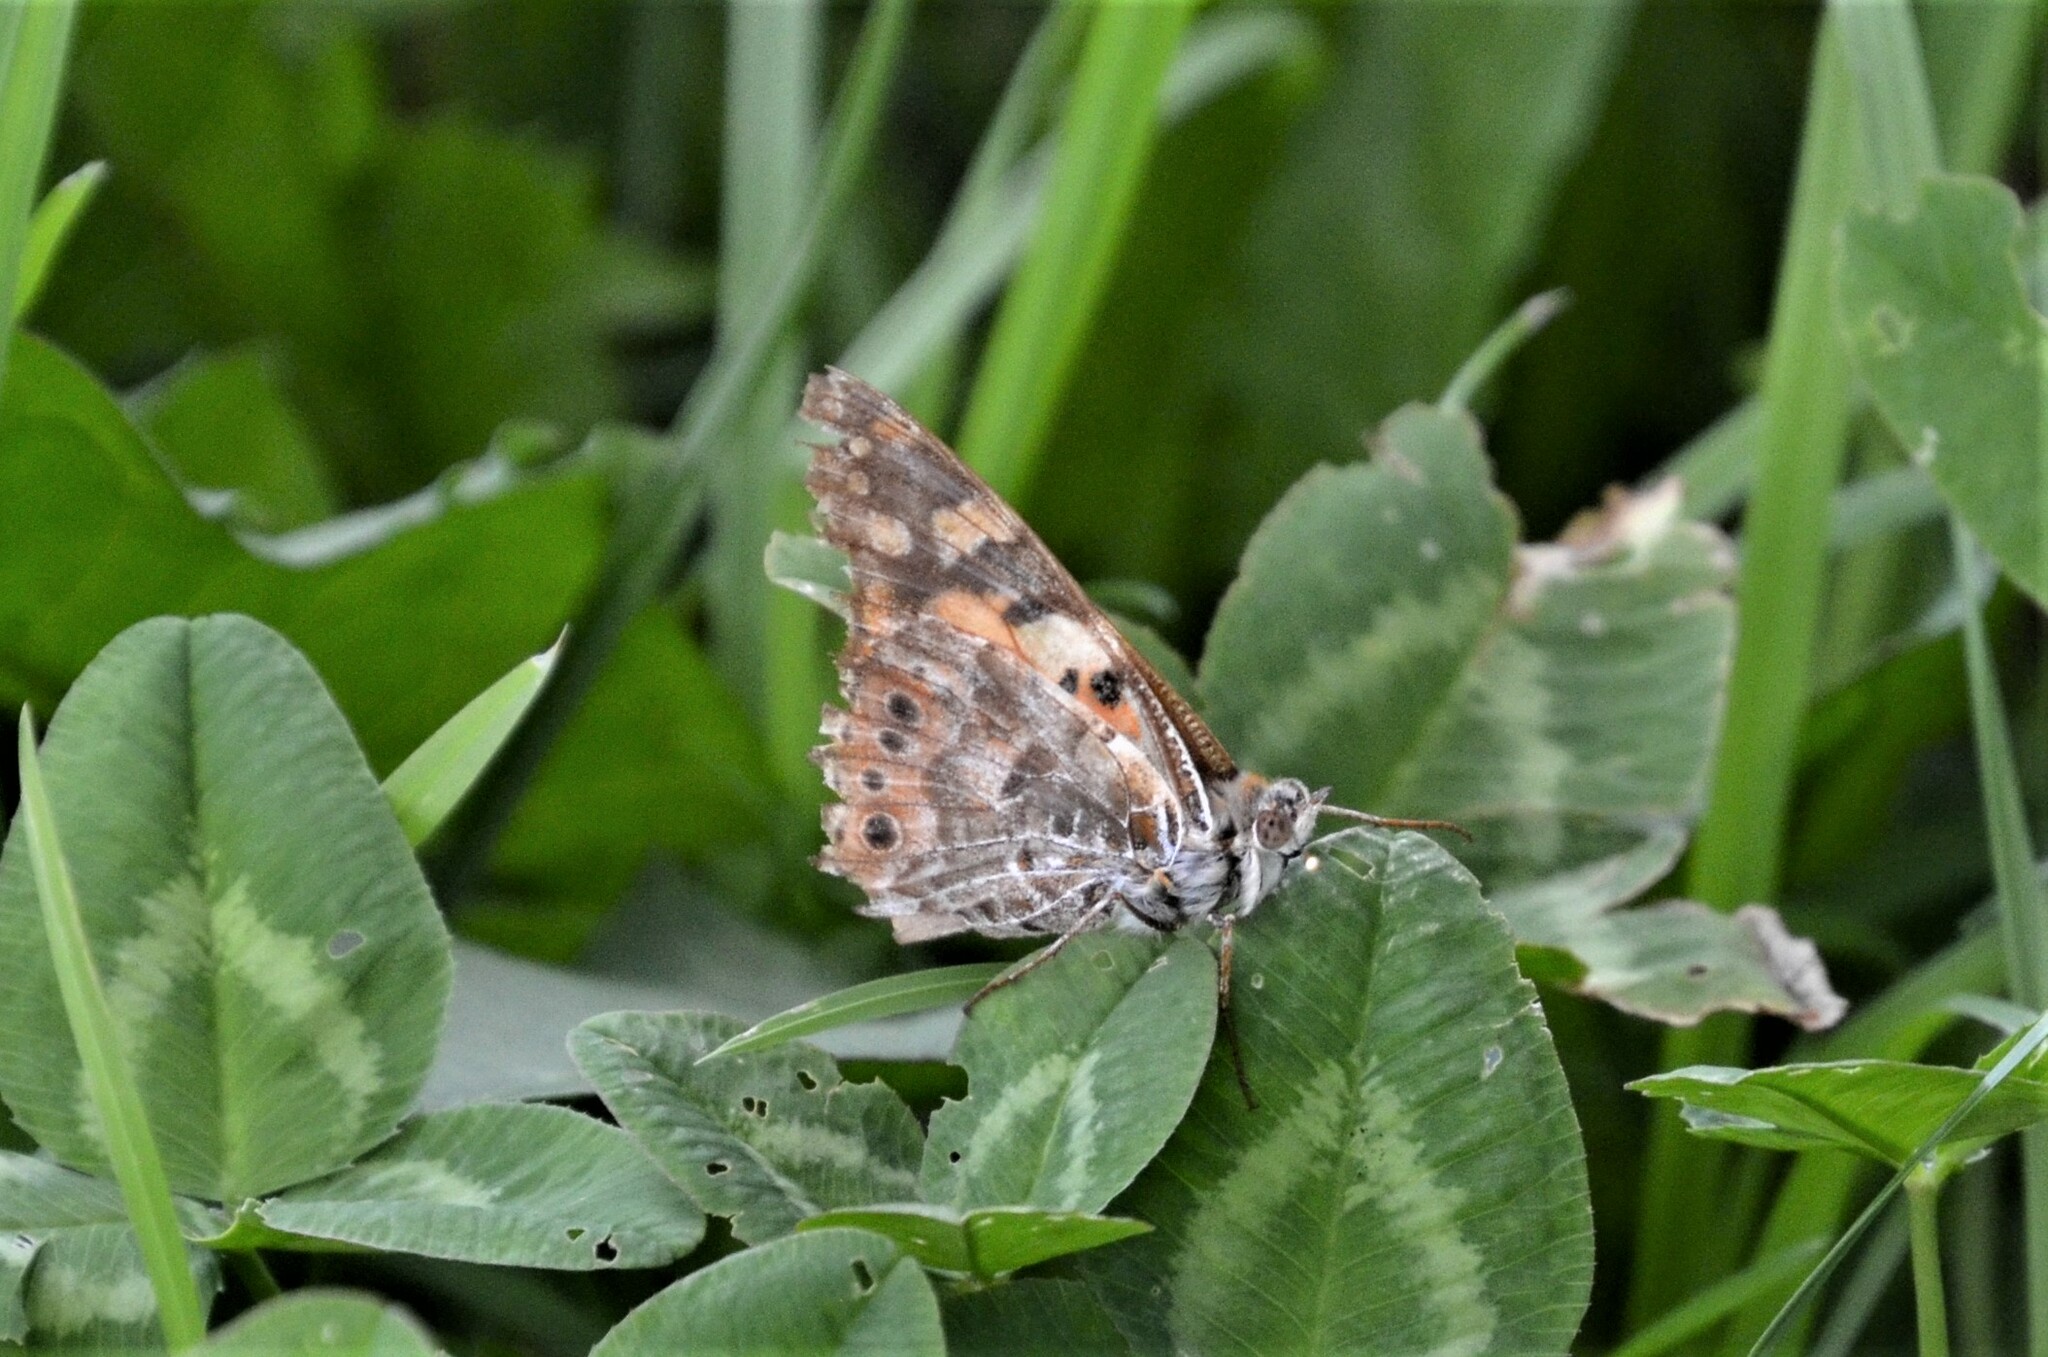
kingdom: Animalia
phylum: Arthropoda
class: Insecta
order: Lepidoptera
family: Nymphalidae
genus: Vanessa
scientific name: Vanessa cardui
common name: Painted lady
